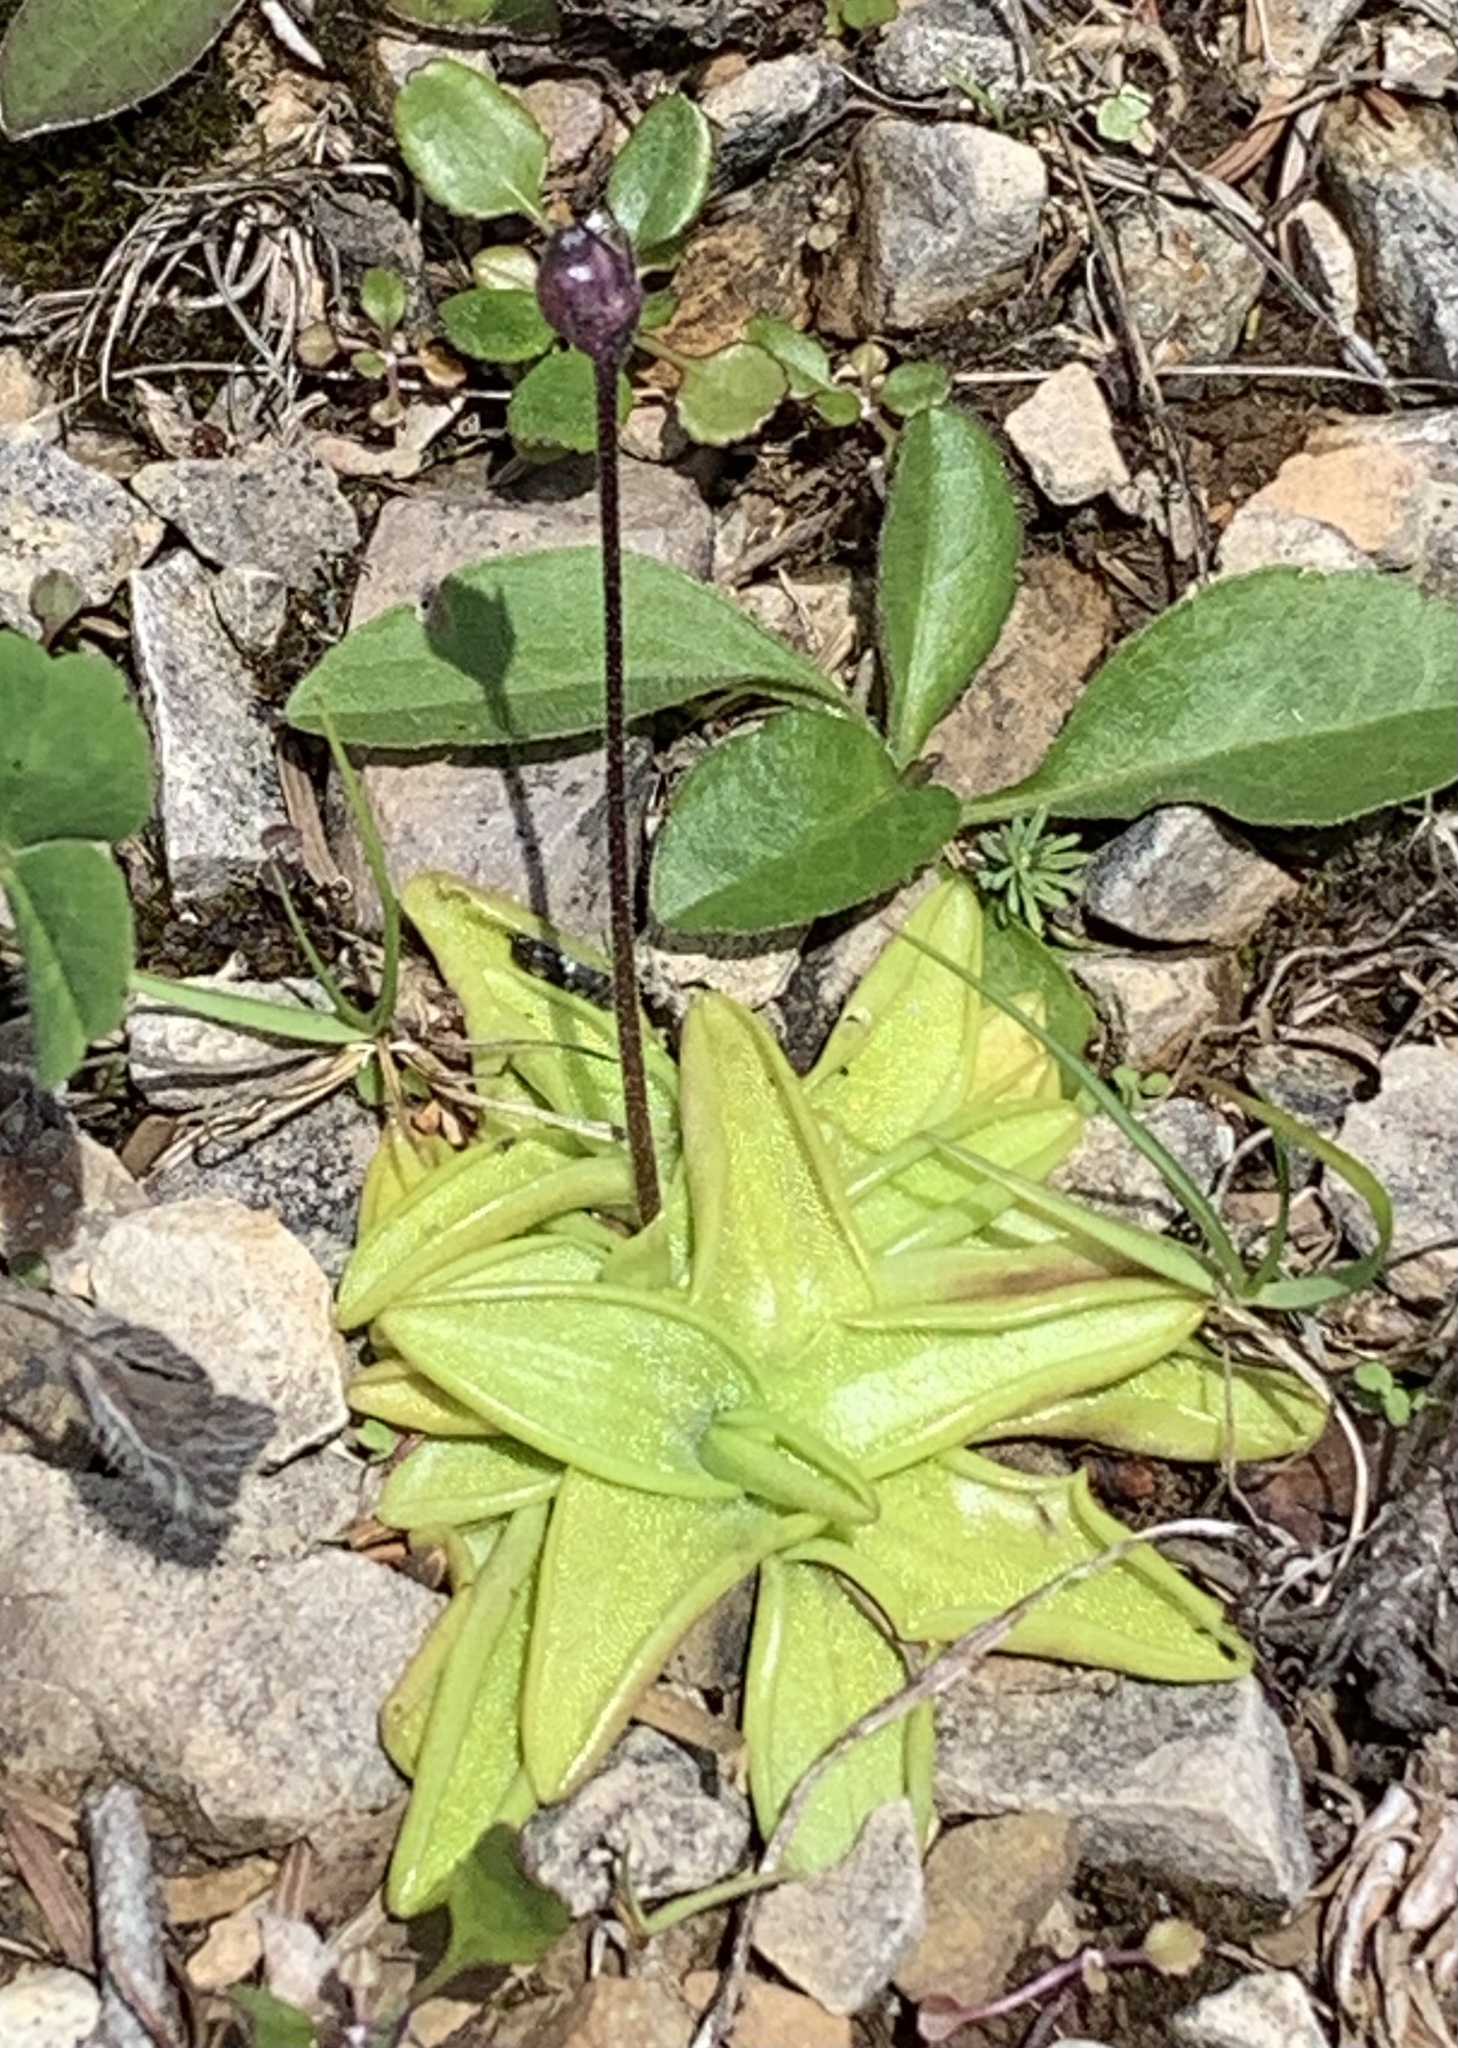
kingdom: Plantae
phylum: Tracheophyta
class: Magnoliopsida
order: Lamiales
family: Lentibulariaceae
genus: Pinguicula
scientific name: Pinguicula vulgaris
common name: Common butterwort
